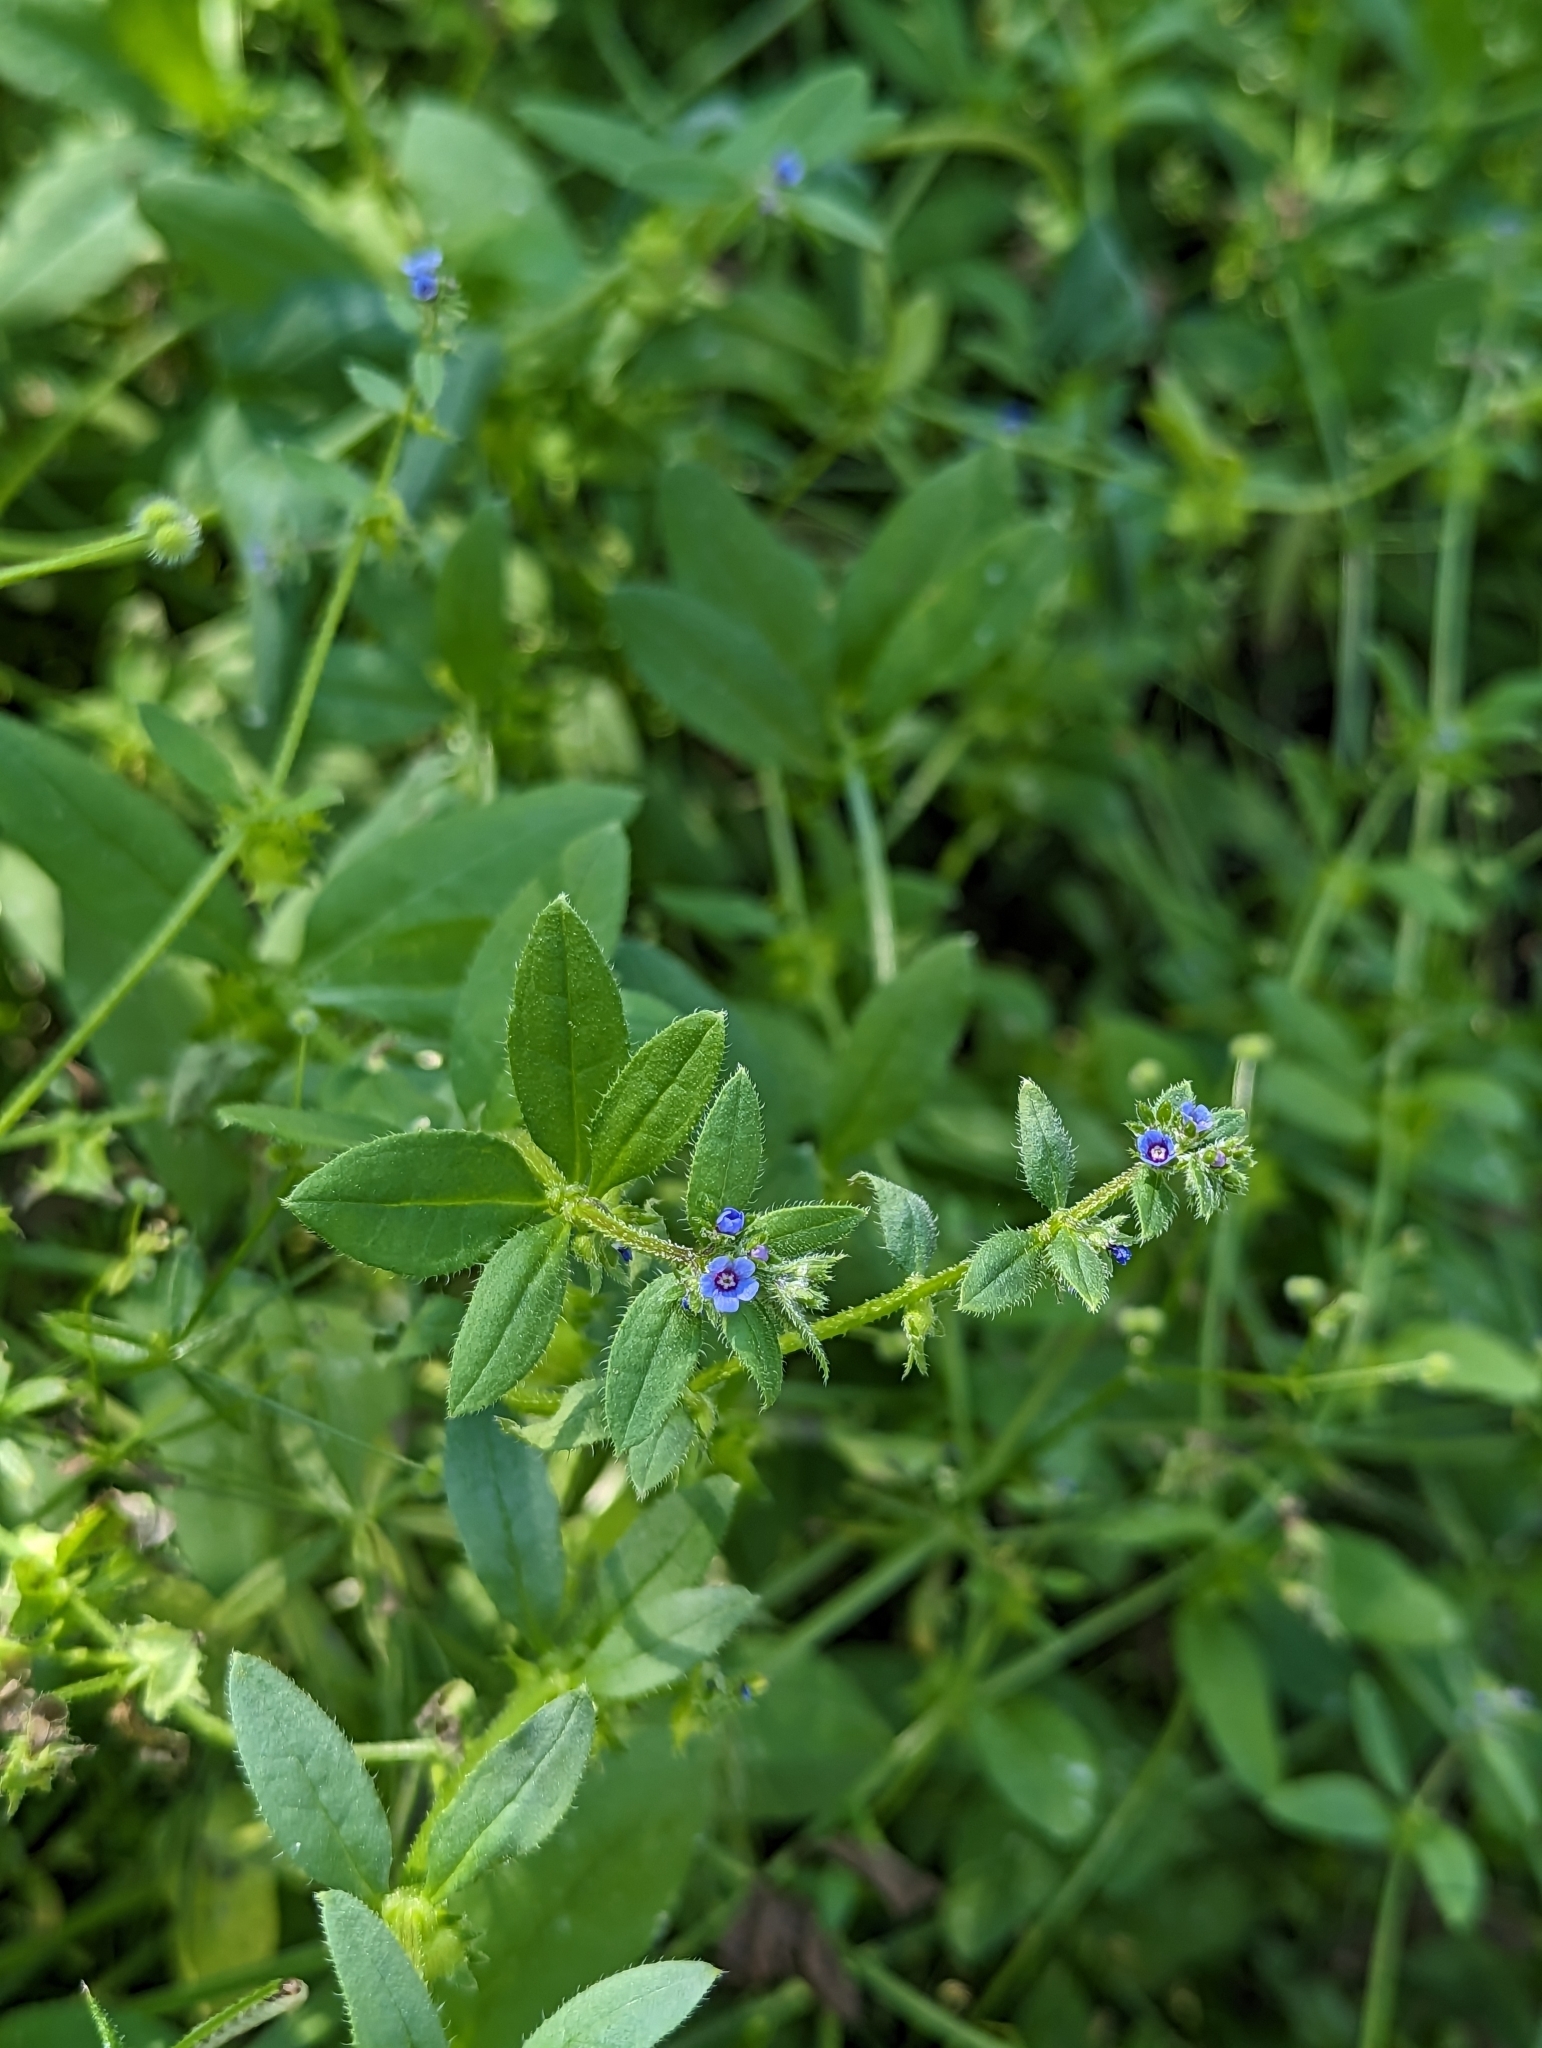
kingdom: Plantae
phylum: Tracheophyta
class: Magnoliopsida
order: Boraginales
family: Boraginaceae
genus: Asperugo
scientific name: Asperugo procumbens
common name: Madwort
